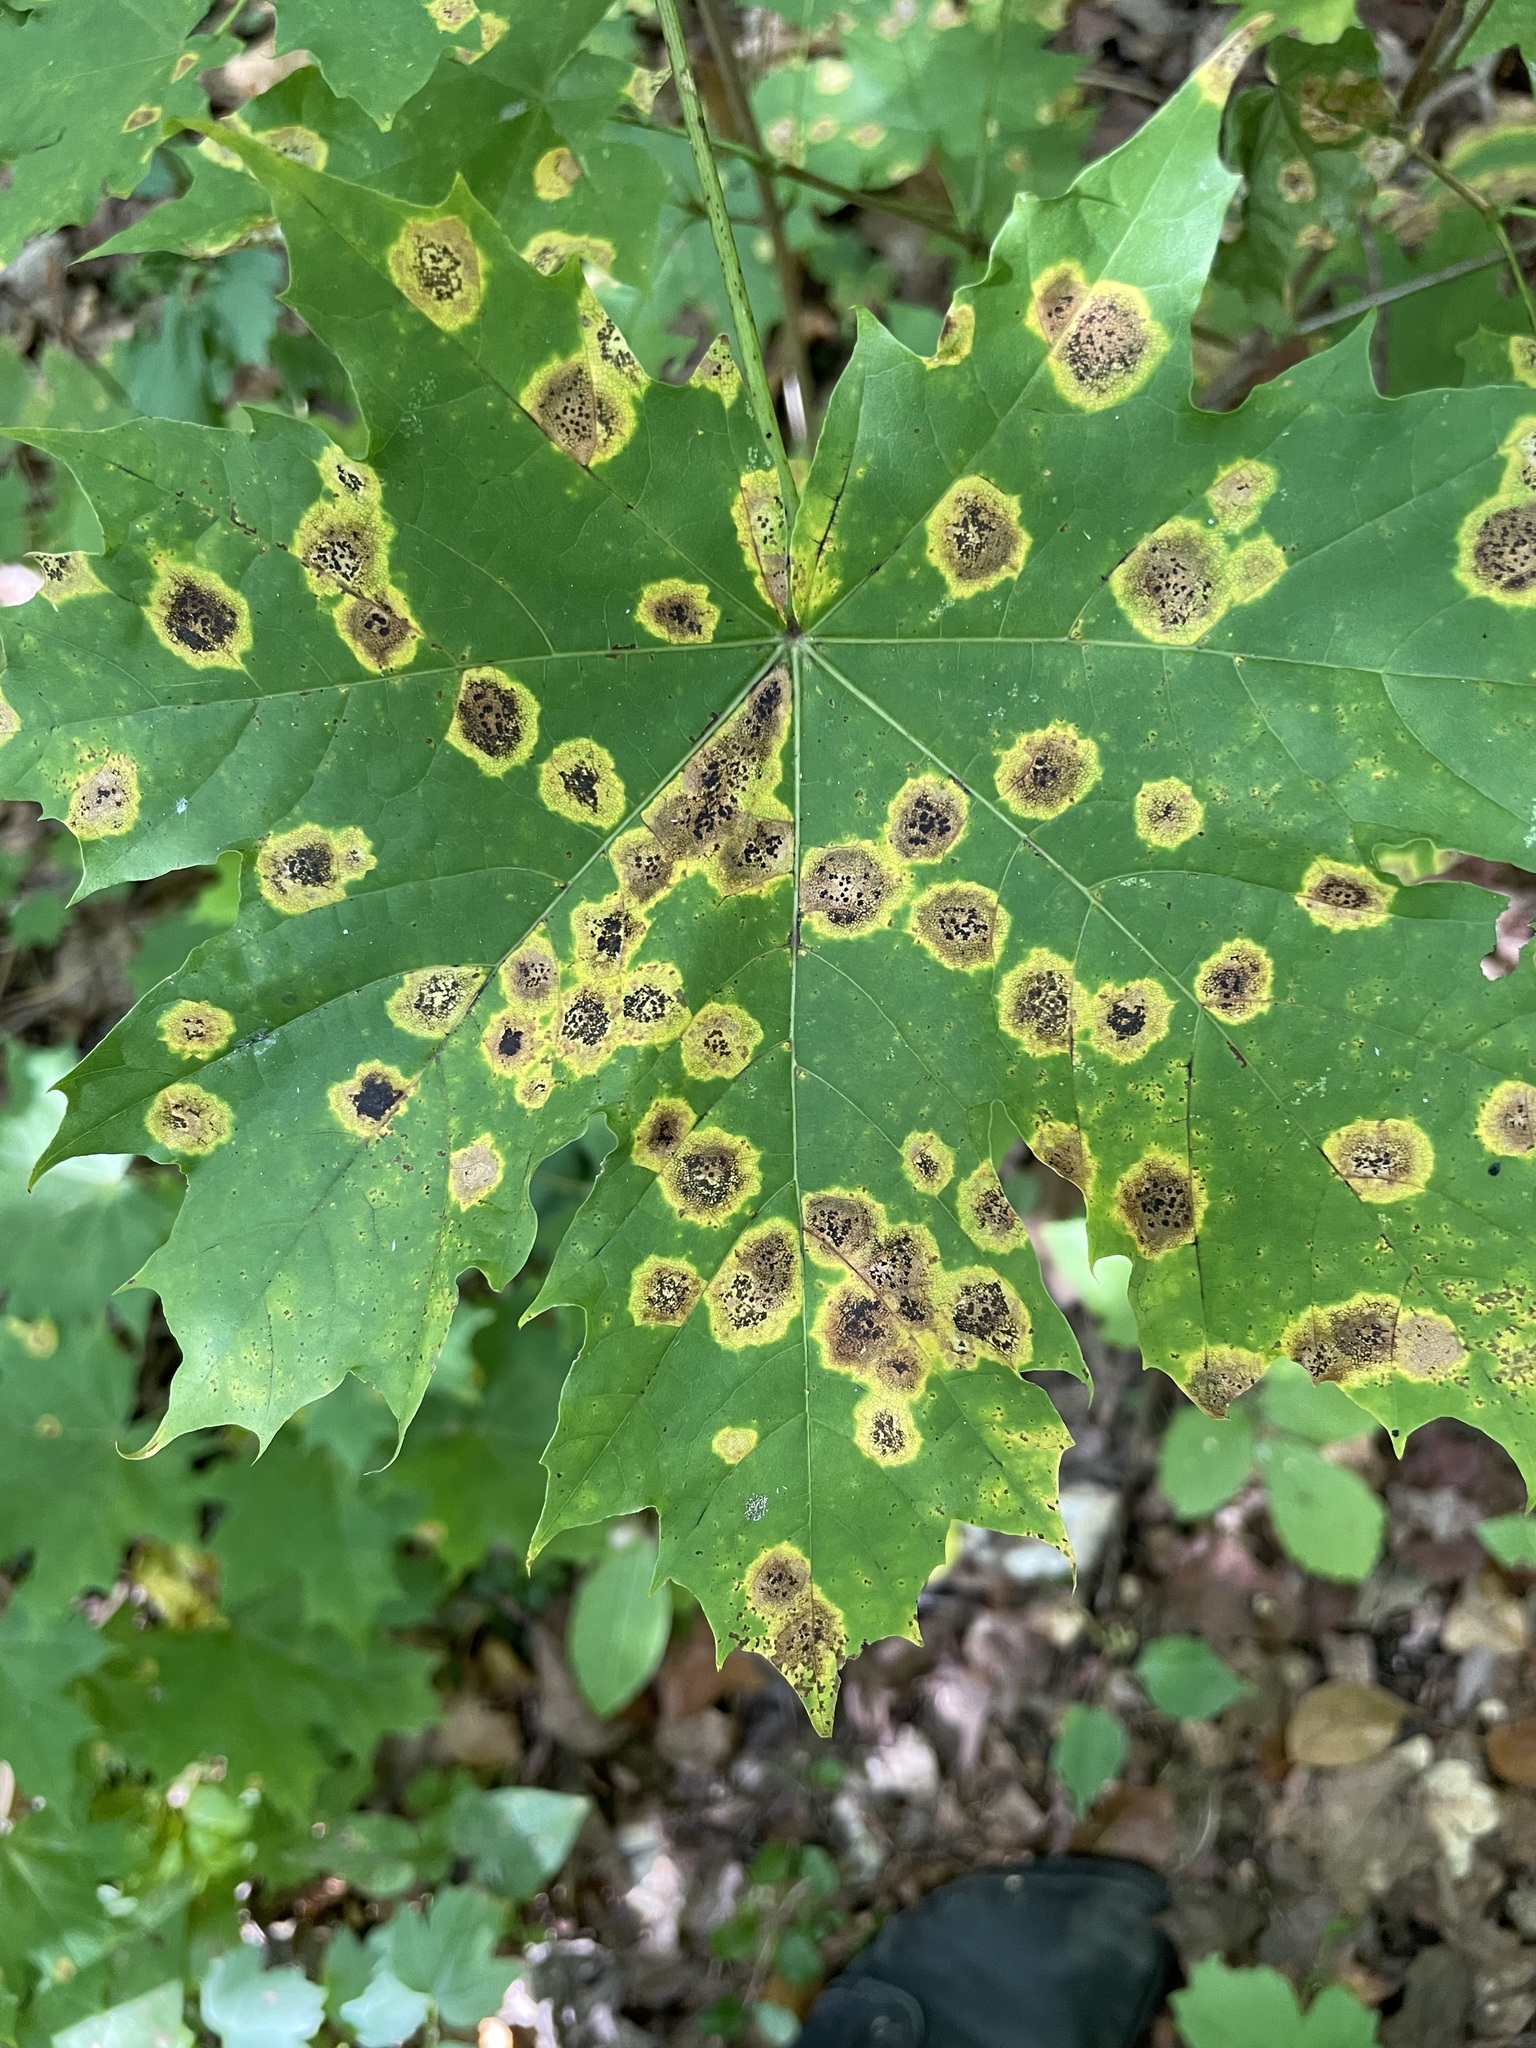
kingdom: Fungi
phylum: Ascomycota
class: Leotiomycetes
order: Rhytismatales
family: Rhytismataceae
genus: Rhytisma
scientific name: Rhytisma acerinum
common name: European tar spot
